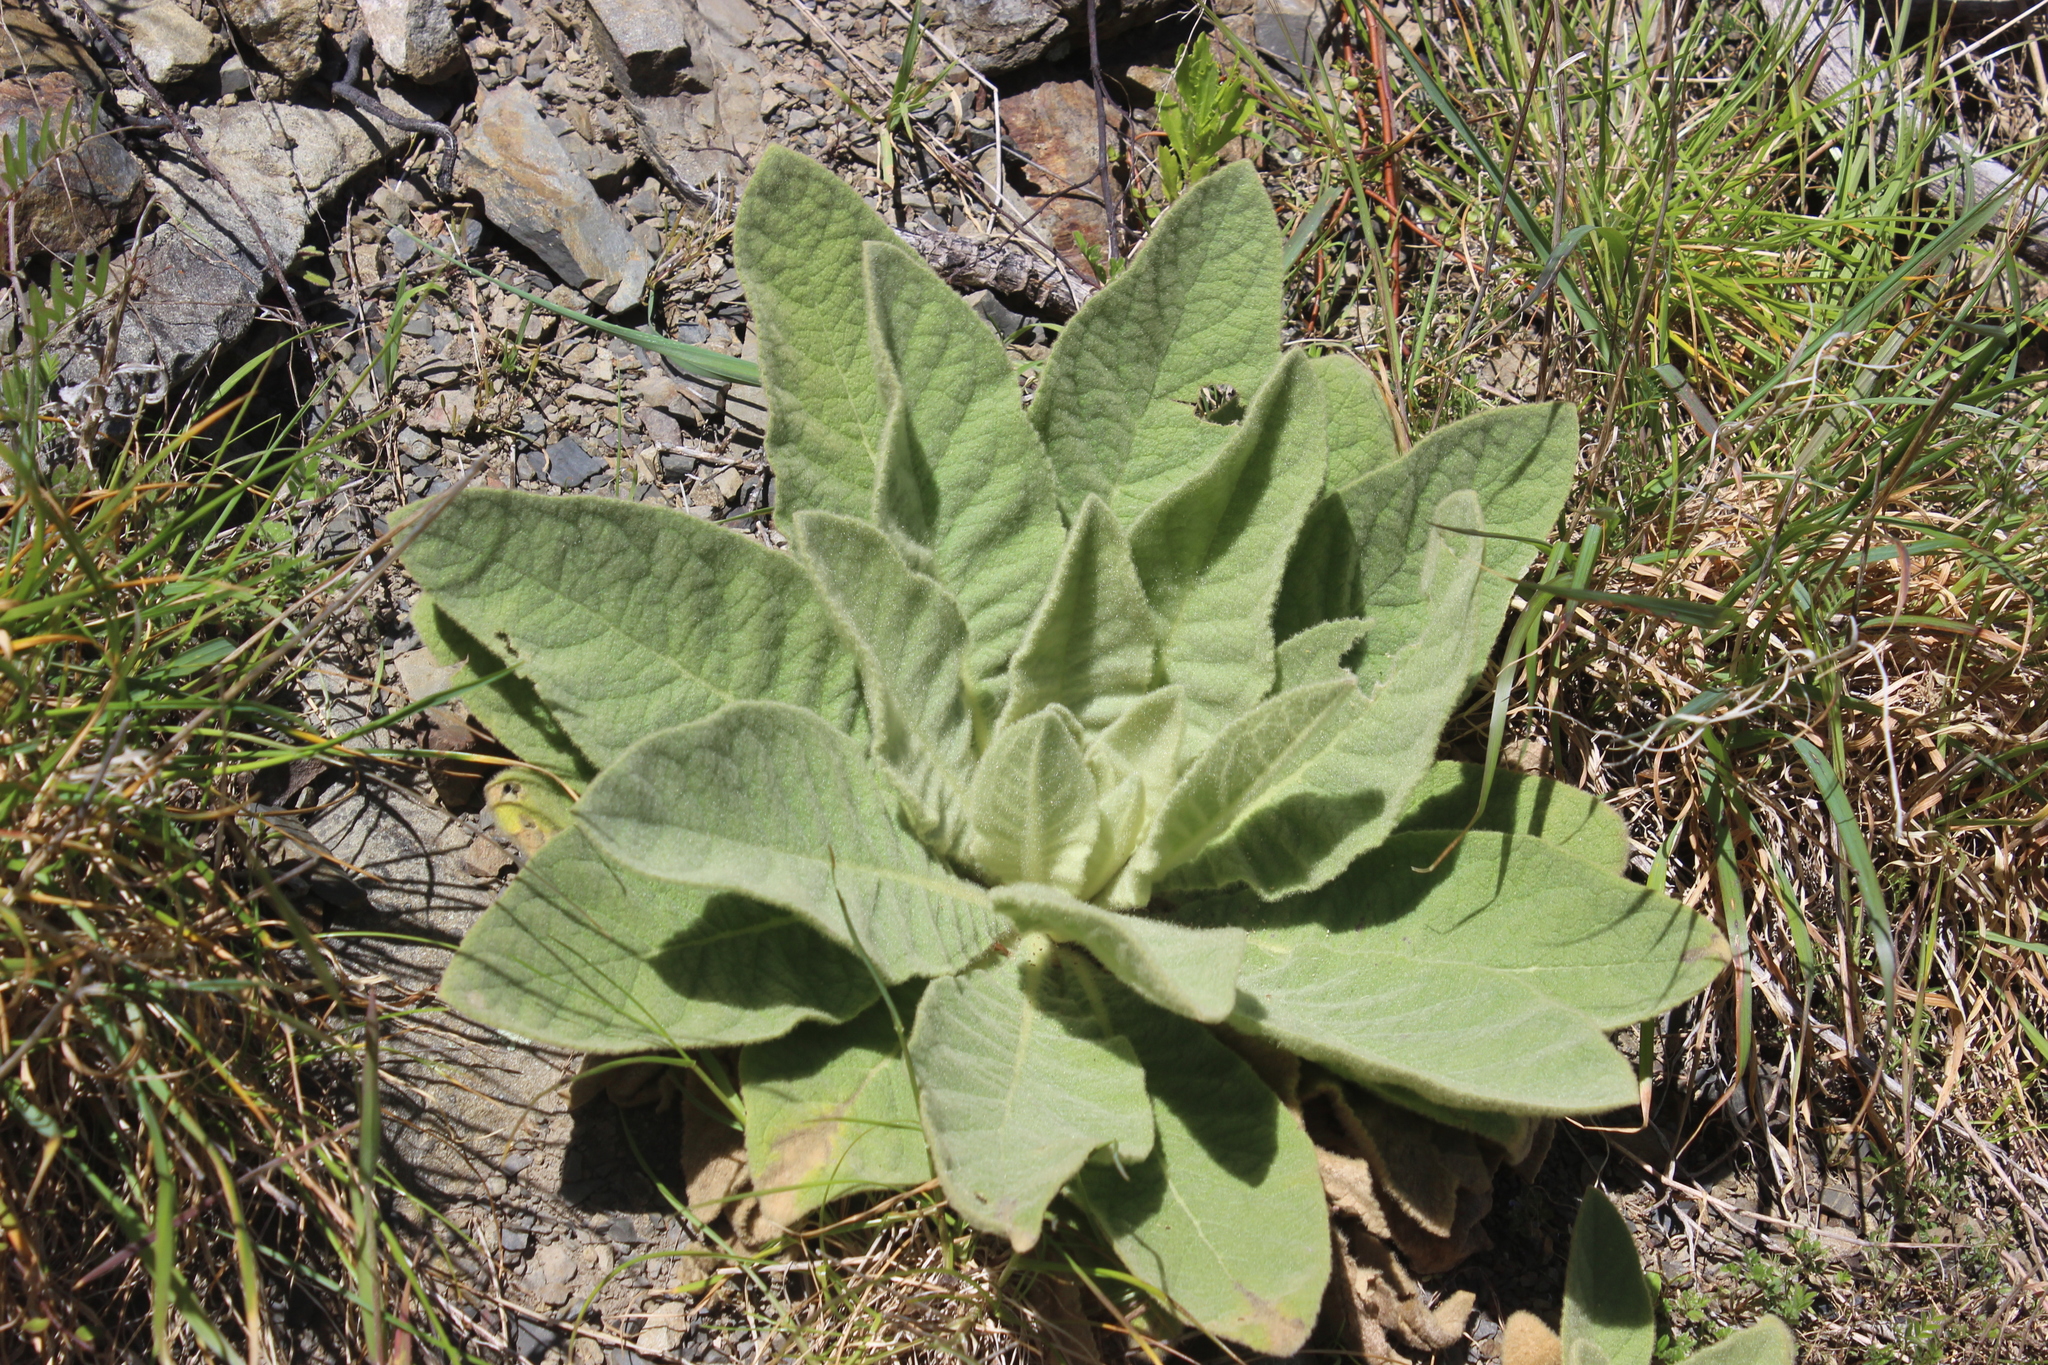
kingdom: Plantae
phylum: Tracheophyta
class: Magnoliopsida
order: Lamiales
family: Scrophulariaceae
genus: Verbascum
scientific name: Verbascum thapsus
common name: Common mullein
